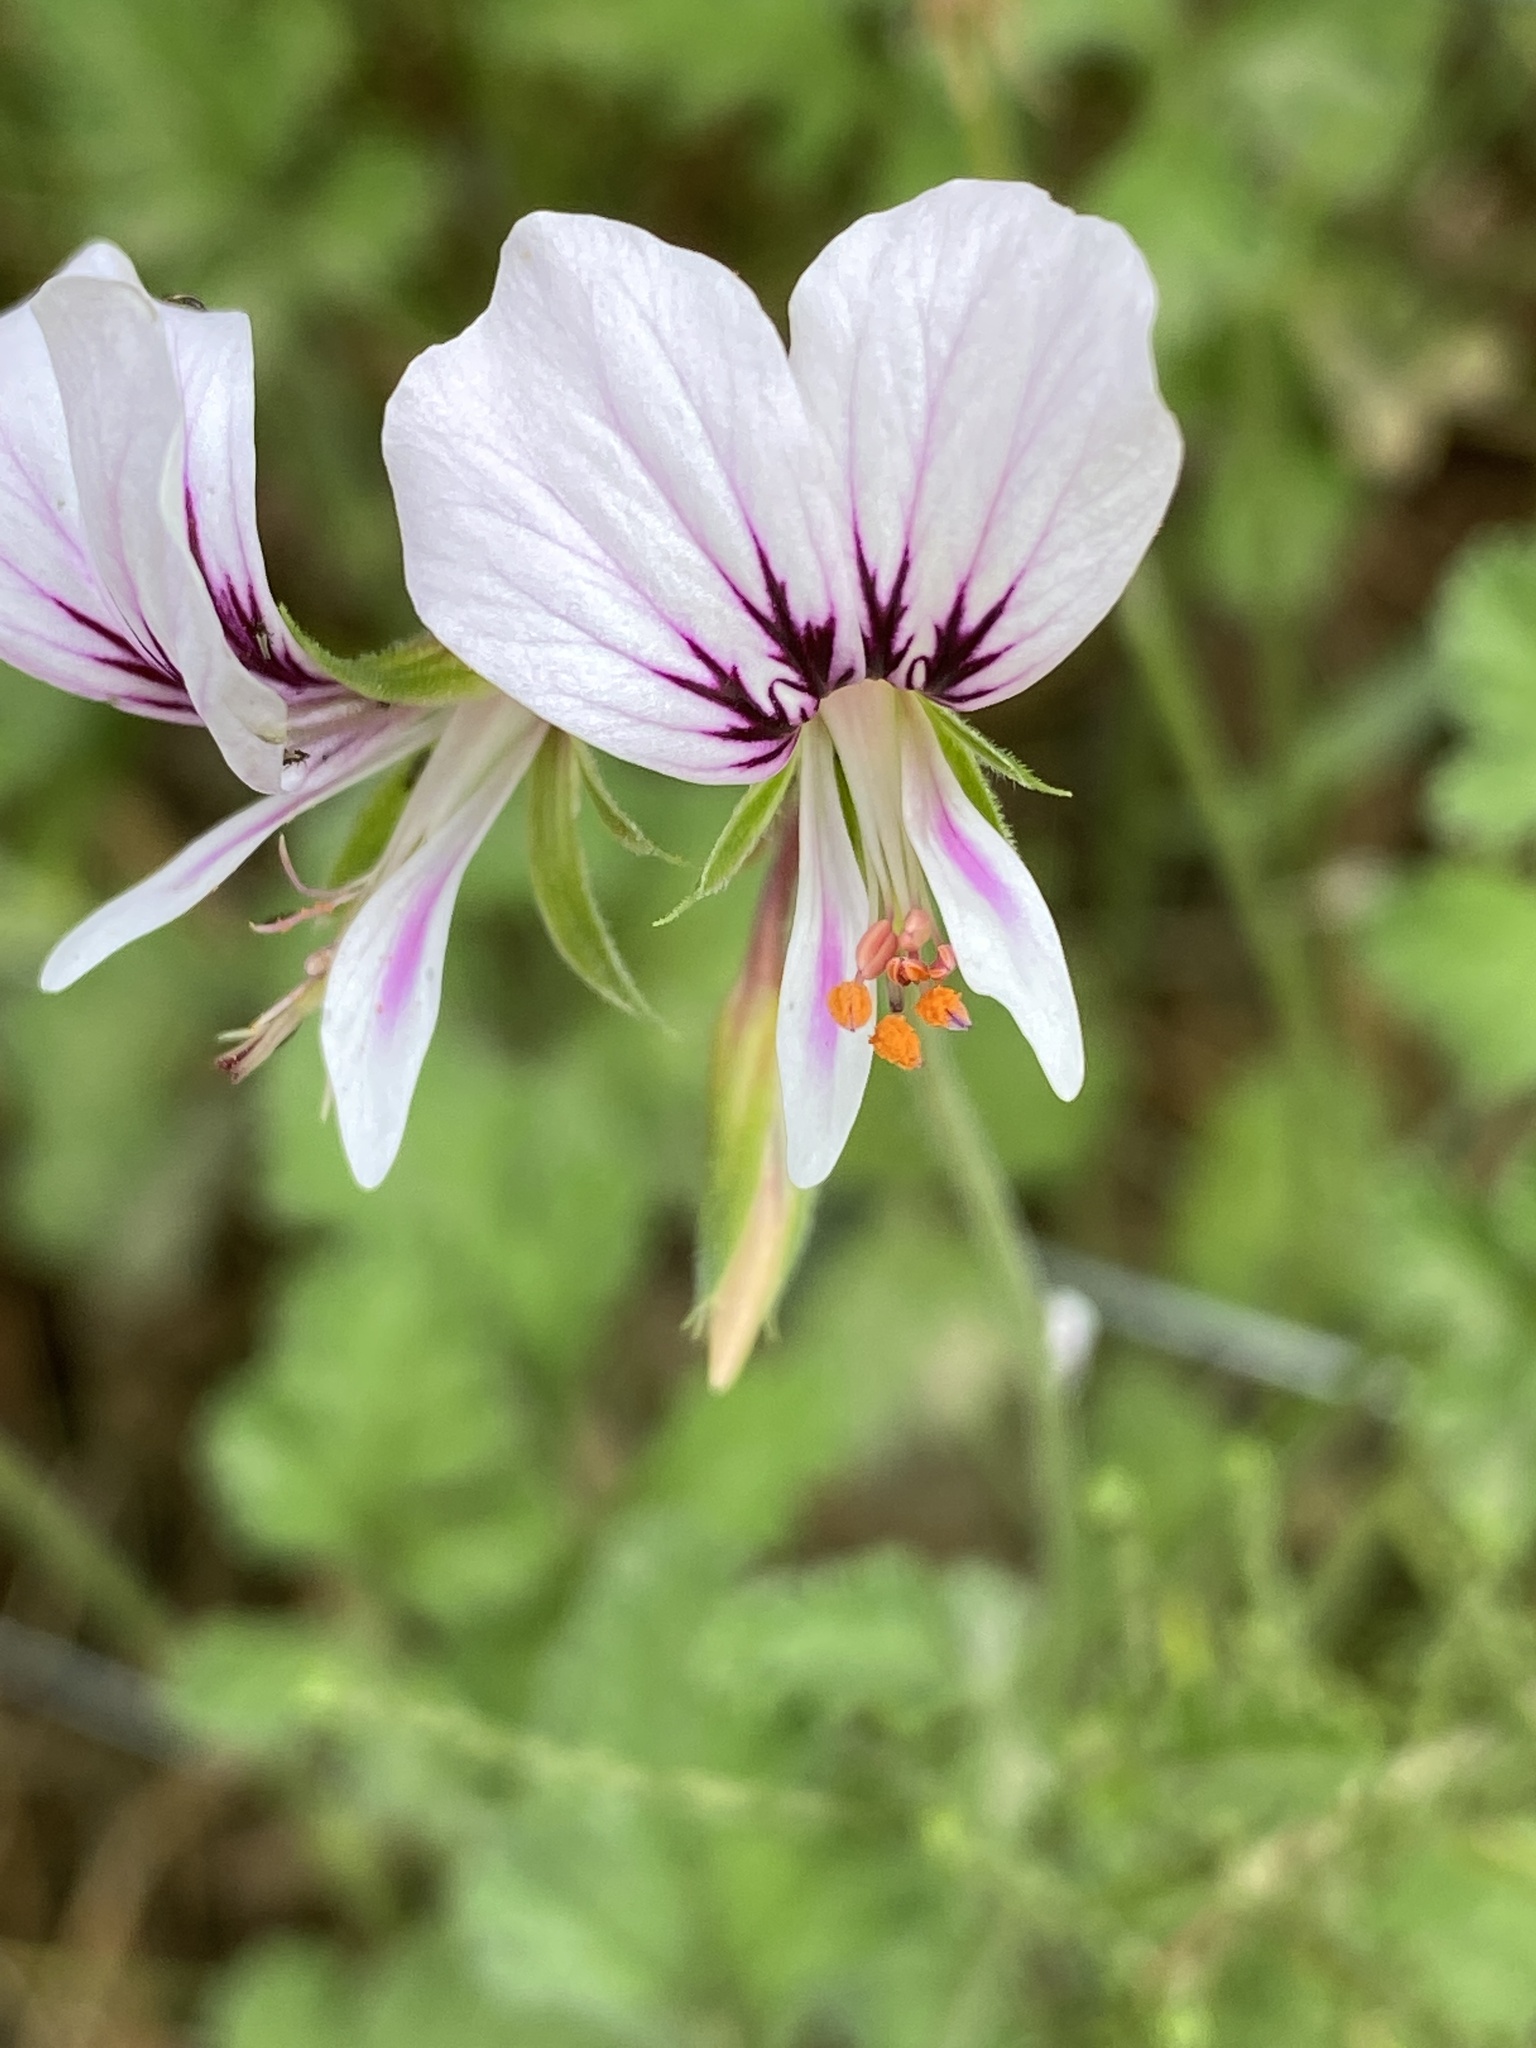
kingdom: Plantae
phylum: Tracheophyta
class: Magnoliopsida
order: Geraniales
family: Geraniaceae
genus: Pelargonium
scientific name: Pelargonium candicans
